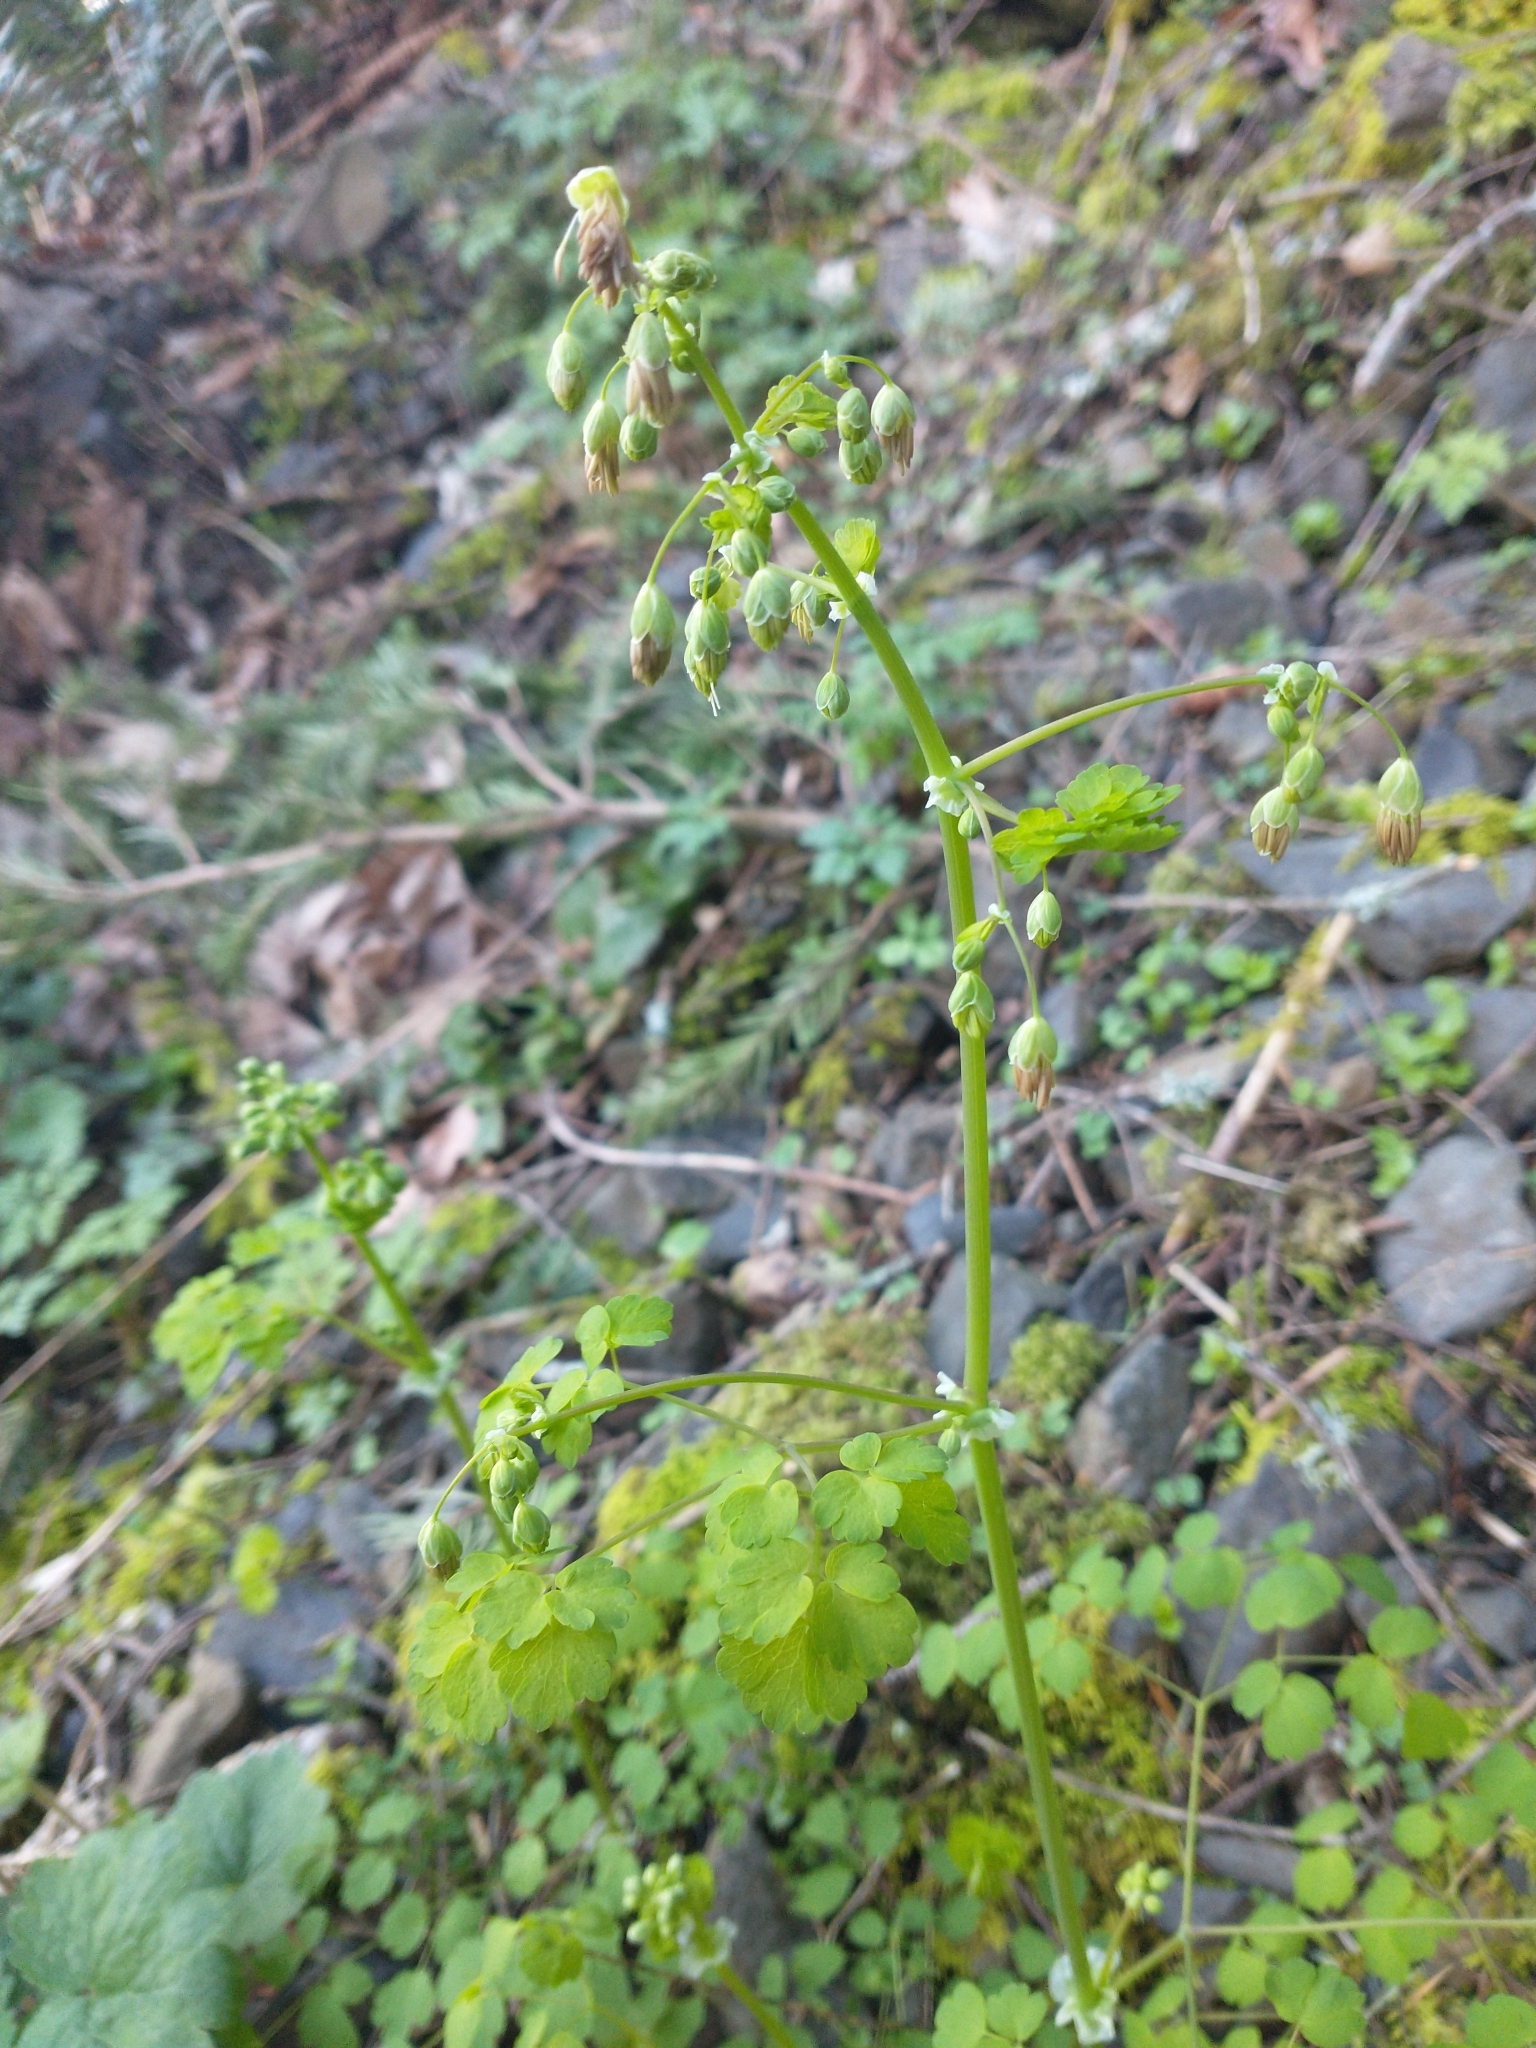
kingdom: Plantae
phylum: Tracheophyta
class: Magnoliopsida
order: Ranunculales
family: Ranunculaceae
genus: Thalictrum
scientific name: Thalictrum occidentale
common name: Western meadow-rue
